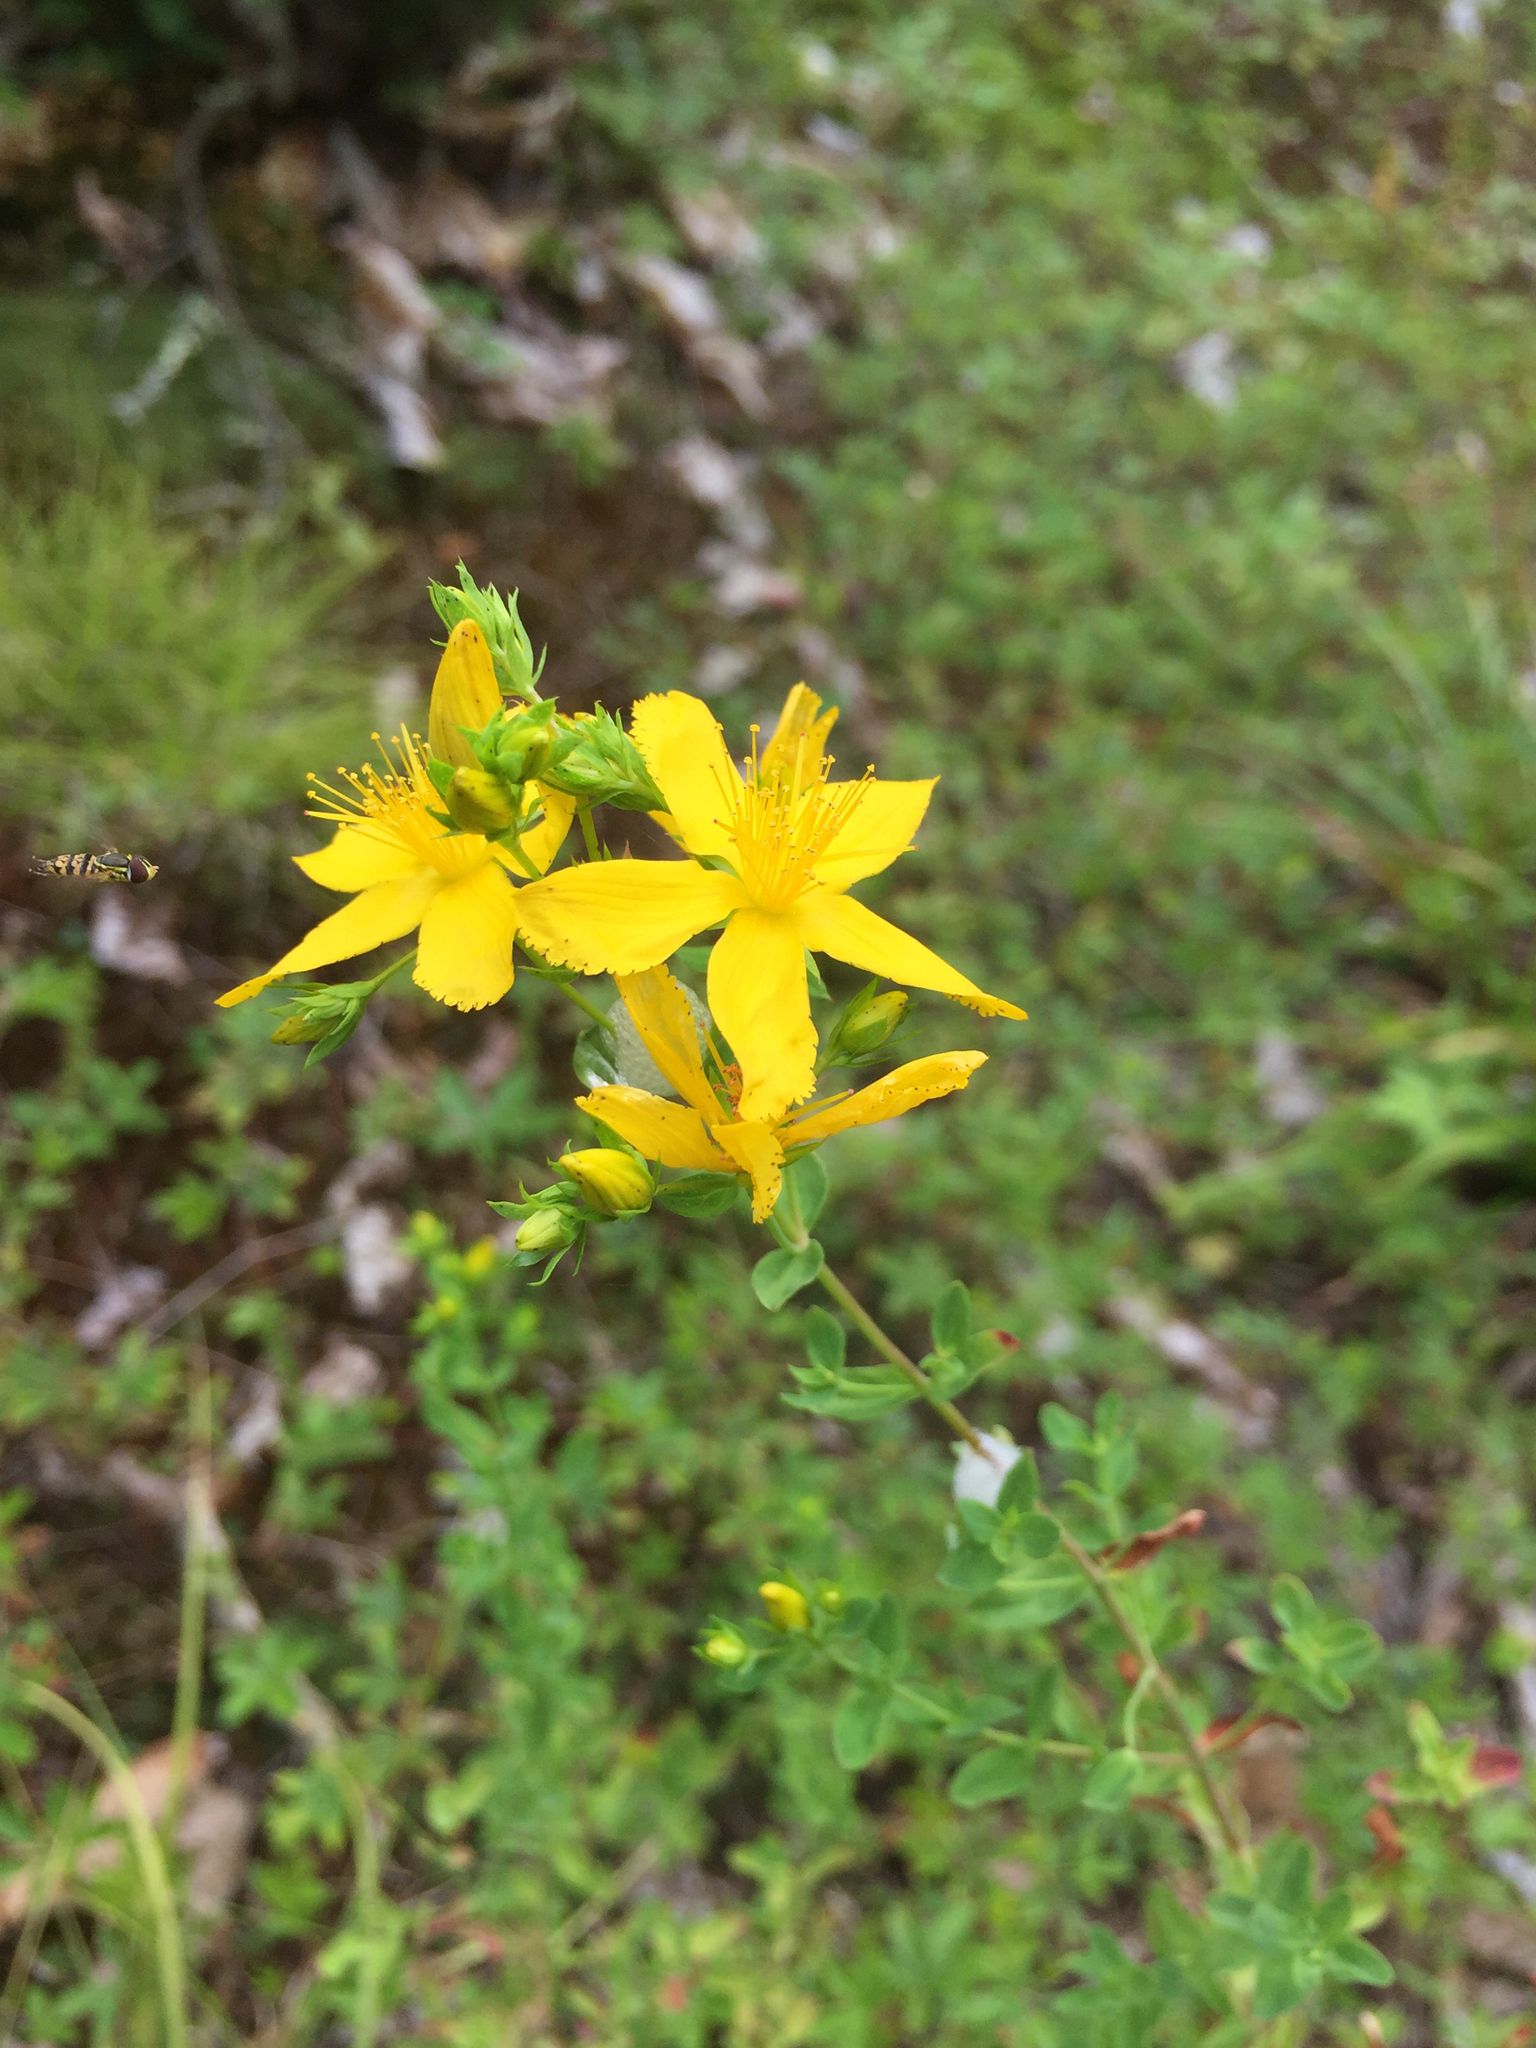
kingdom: Plantae
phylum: Tracheophyta
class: Magnoliopsida
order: Malpighiales
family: Hypericaceae
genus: Hypericum
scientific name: Hypericum perforatum
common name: Common st. johnswort
